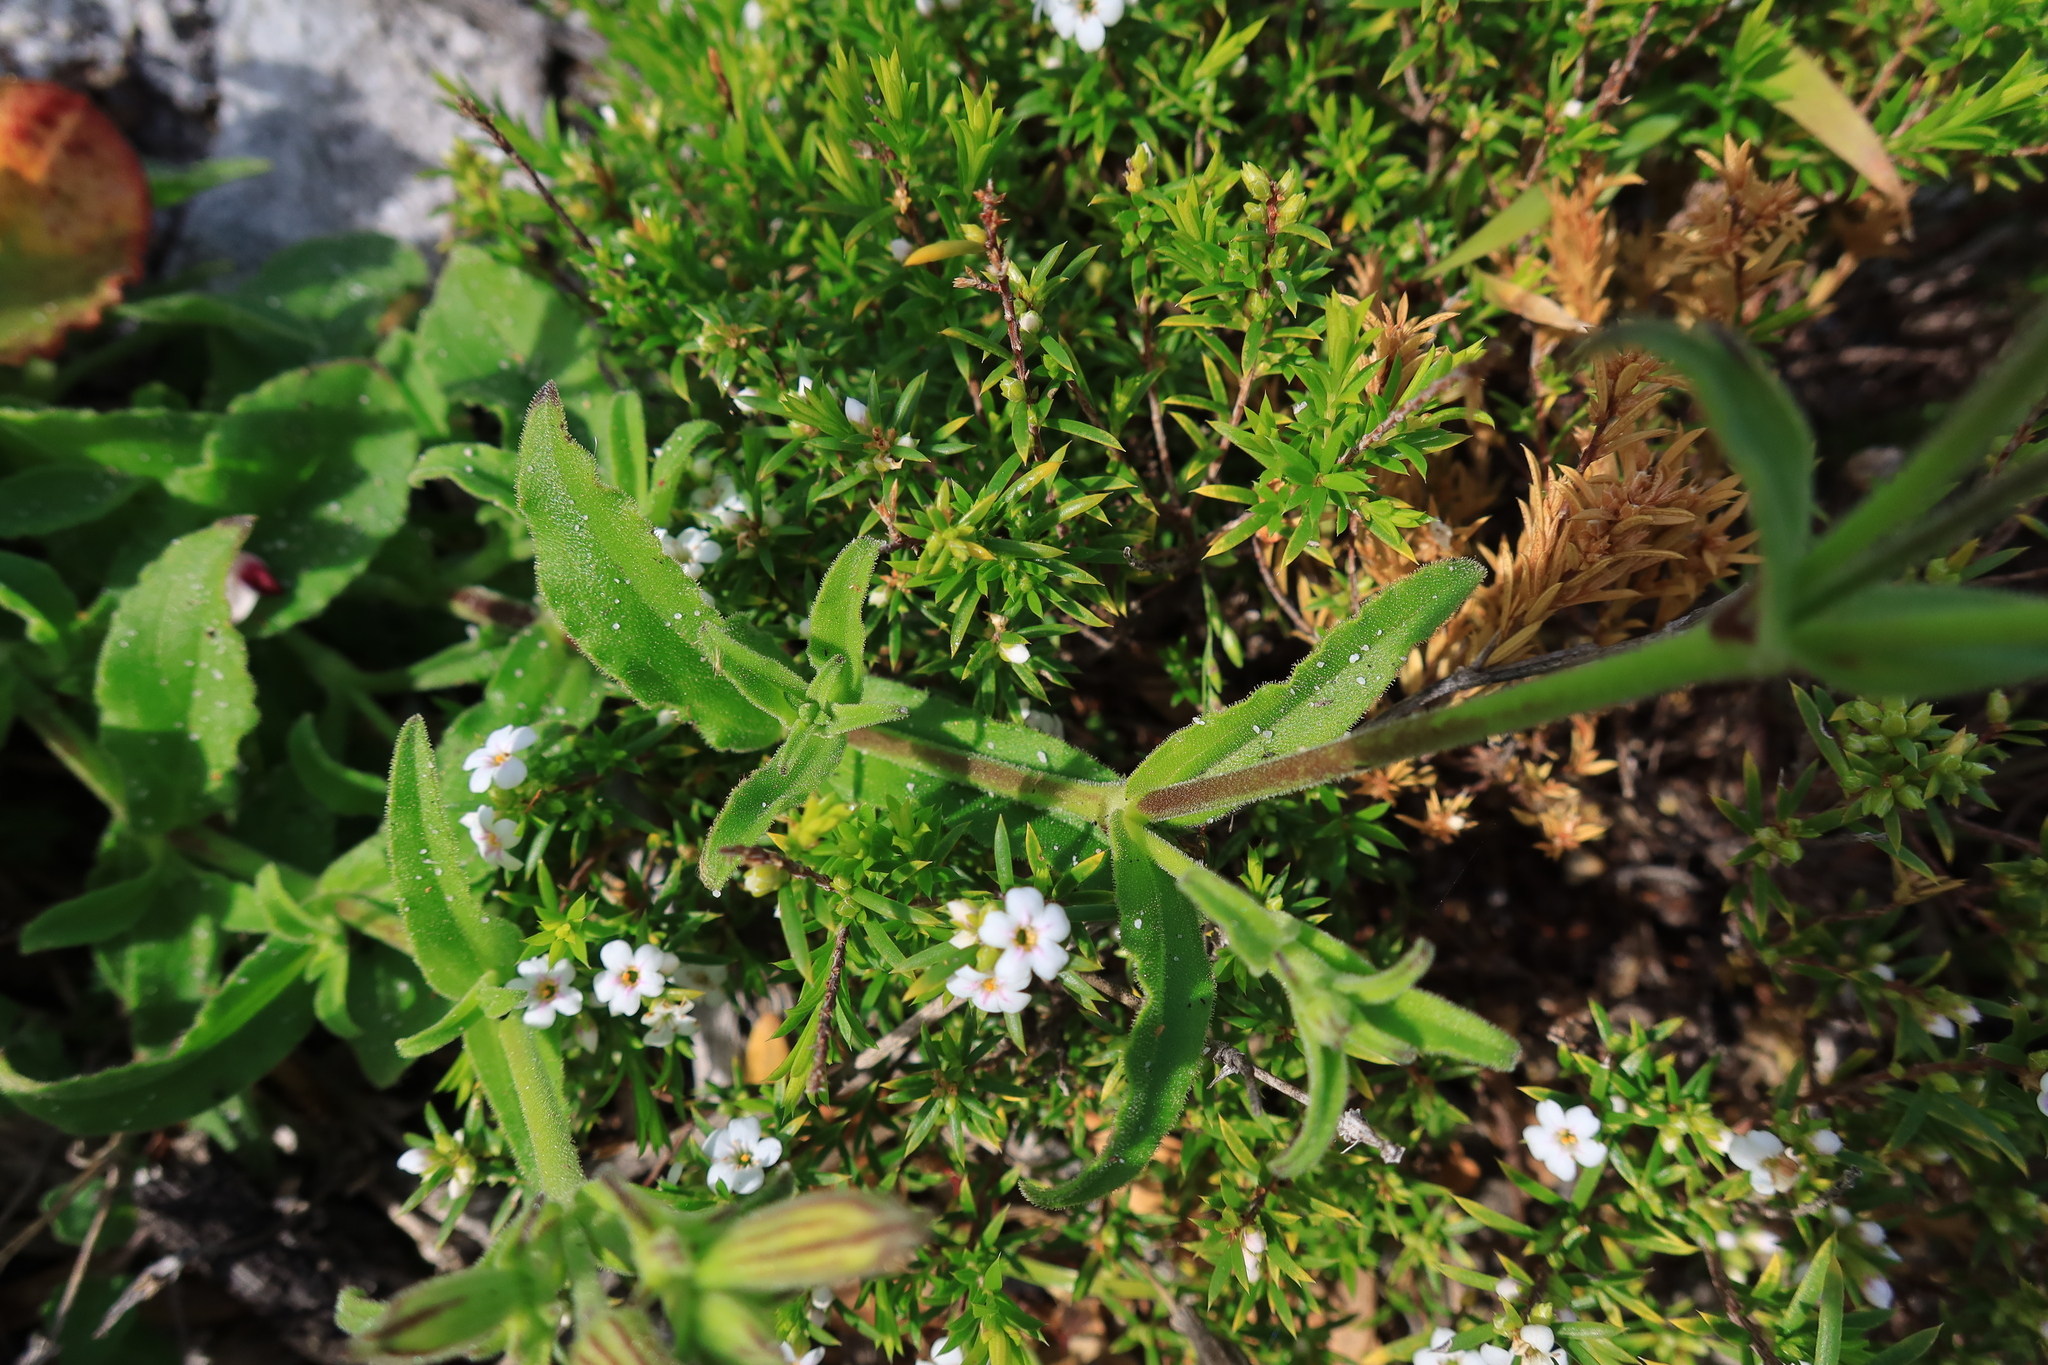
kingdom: Plantae
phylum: Tracheophyta
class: Magnoliopsida
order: Caryophyllales
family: Caryophyllaceae
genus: Silene
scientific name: Silene undulata
